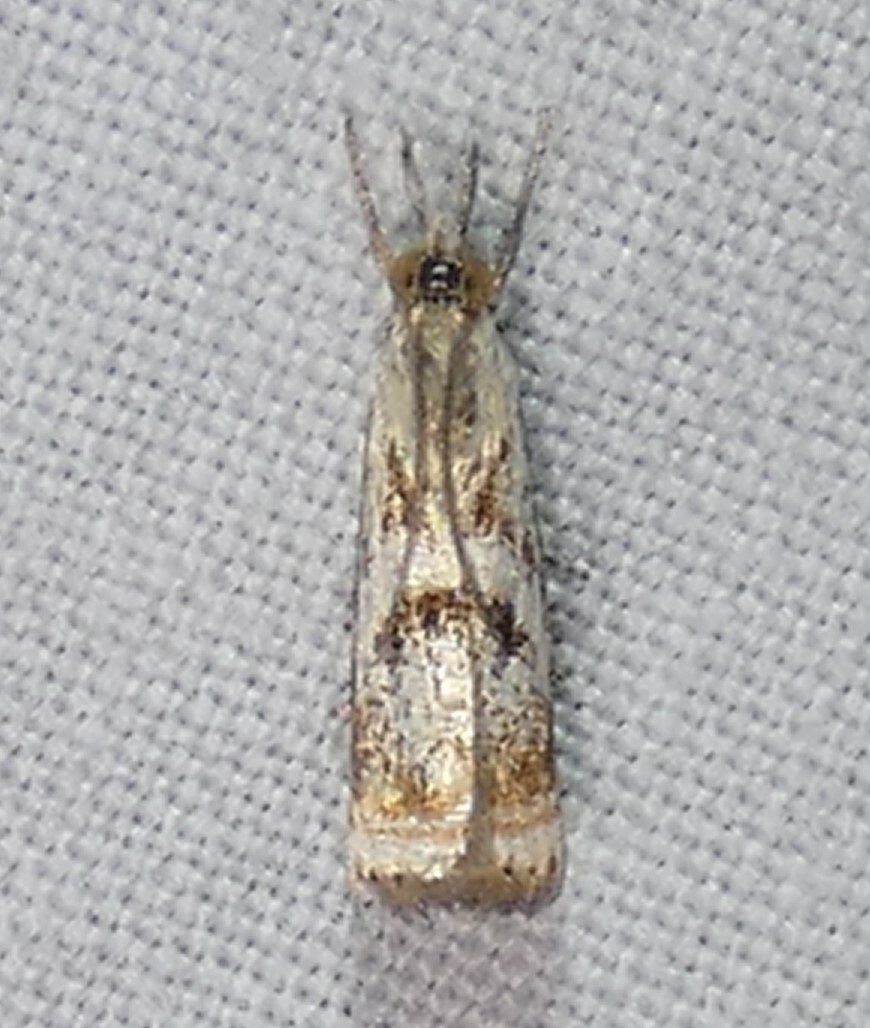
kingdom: Animalia
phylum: Arthropoda
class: Insecta
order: Lepidoptera
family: Crambidae
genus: Microcrambus
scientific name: Microcrambus elegans
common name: Elegant grass-veneer
